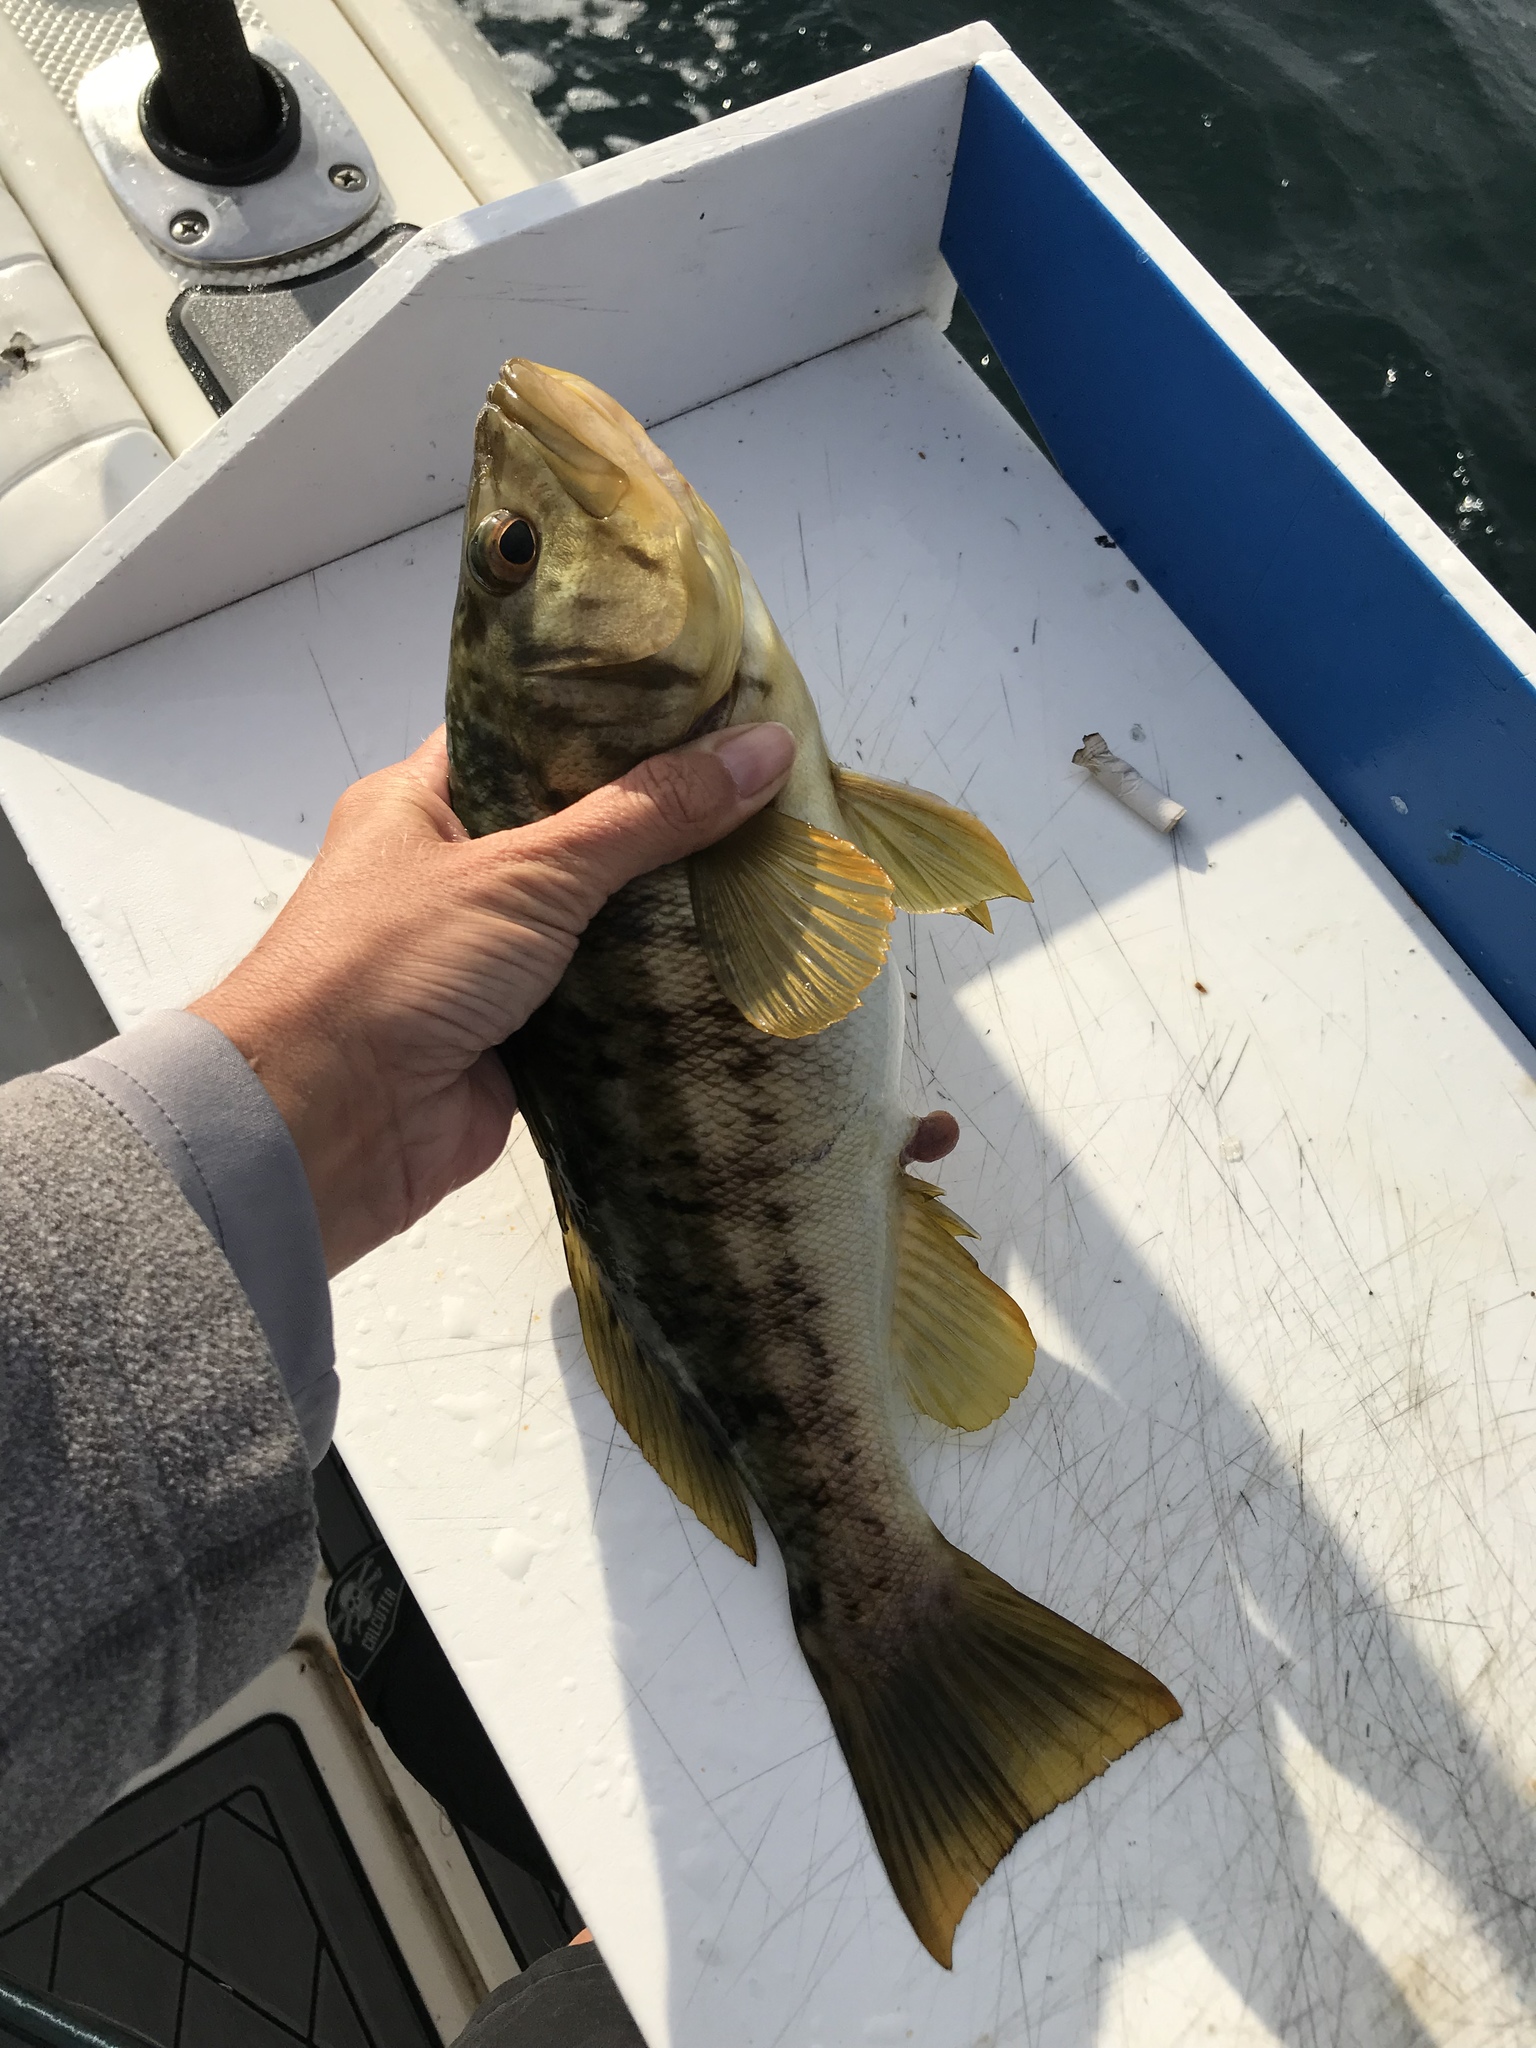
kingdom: Animalia
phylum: Chordata
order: Perciformes
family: Serranidae
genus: Paralabrax
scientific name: Paralabrax clathratus
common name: Kelp bass
